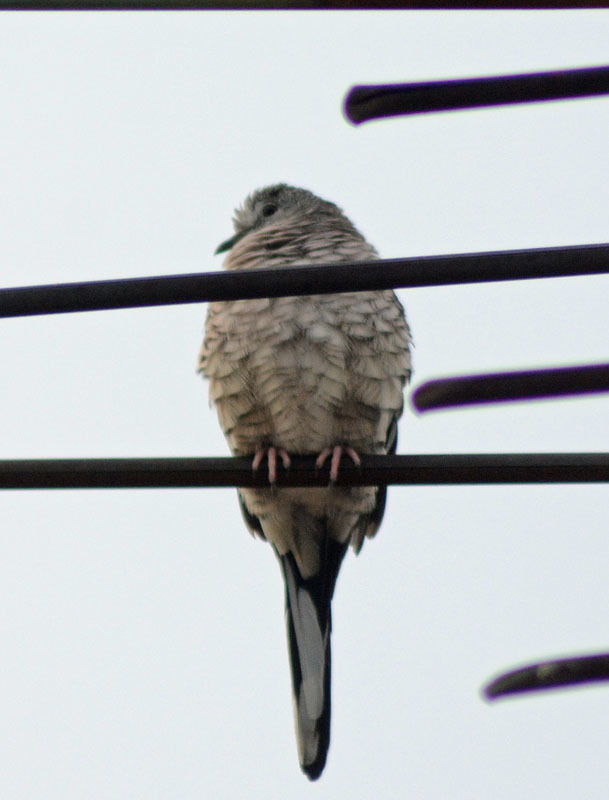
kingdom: Animalia
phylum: Chordata
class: Aves
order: Columbiformes
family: Columbidae
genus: Columbina
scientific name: Columbina inca
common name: Inca dove
